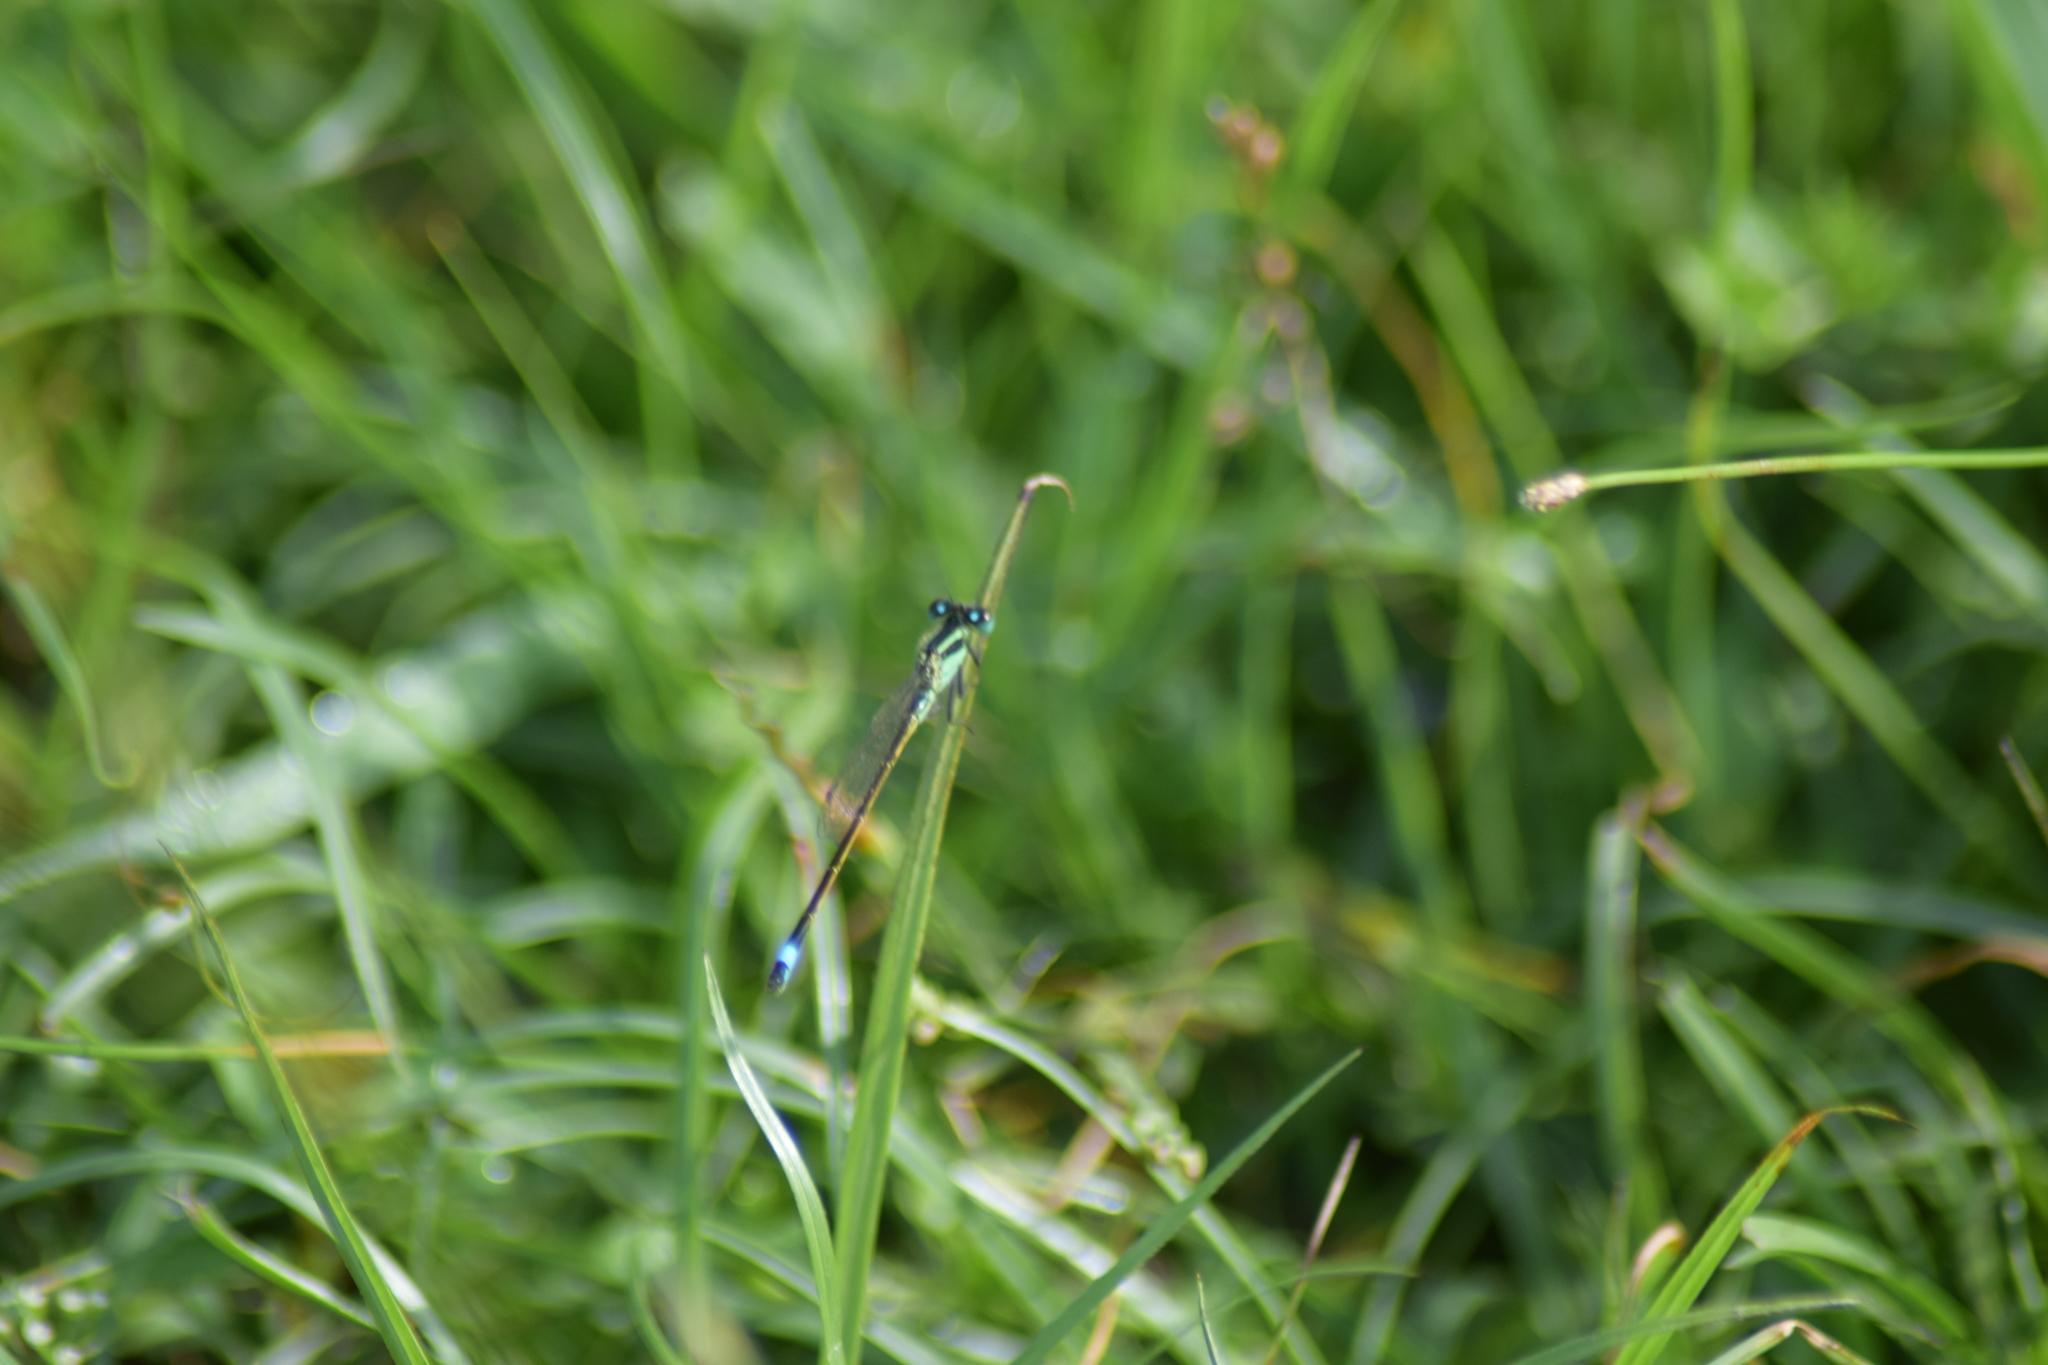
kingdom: Animalia
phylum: Arthropoda
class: Insecta
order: Odonata
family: Coenagrionidae
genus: Ischnura
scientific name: Ischnura ramburii
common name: Rambur's forktail
